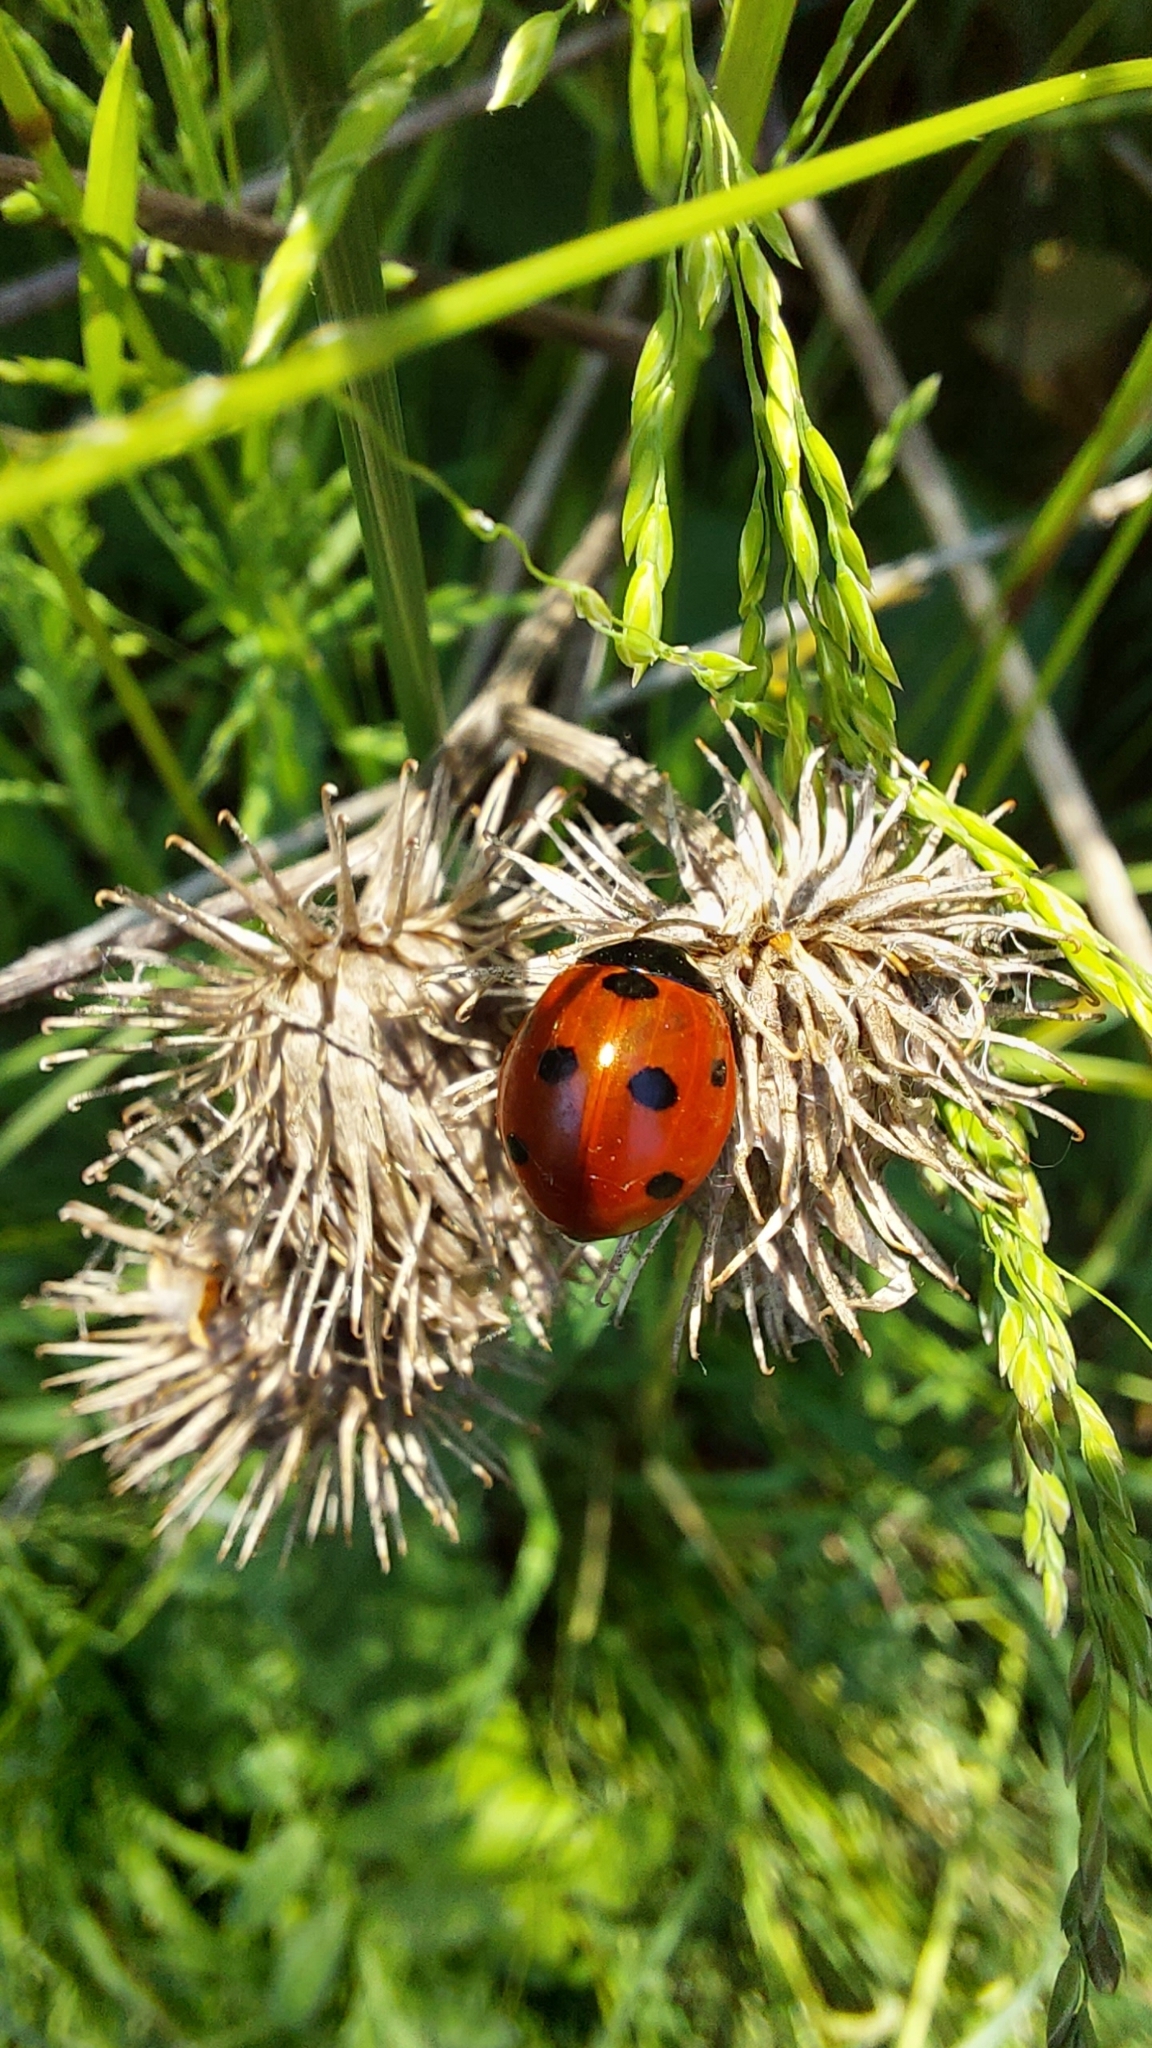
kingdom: Animalia
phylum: Arthropoda
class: Insecta
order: Coleoptera
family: Coccinellidae
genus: Coccinella
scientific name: Coccinella septempunctata
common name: Sevenspotted lady beetle
